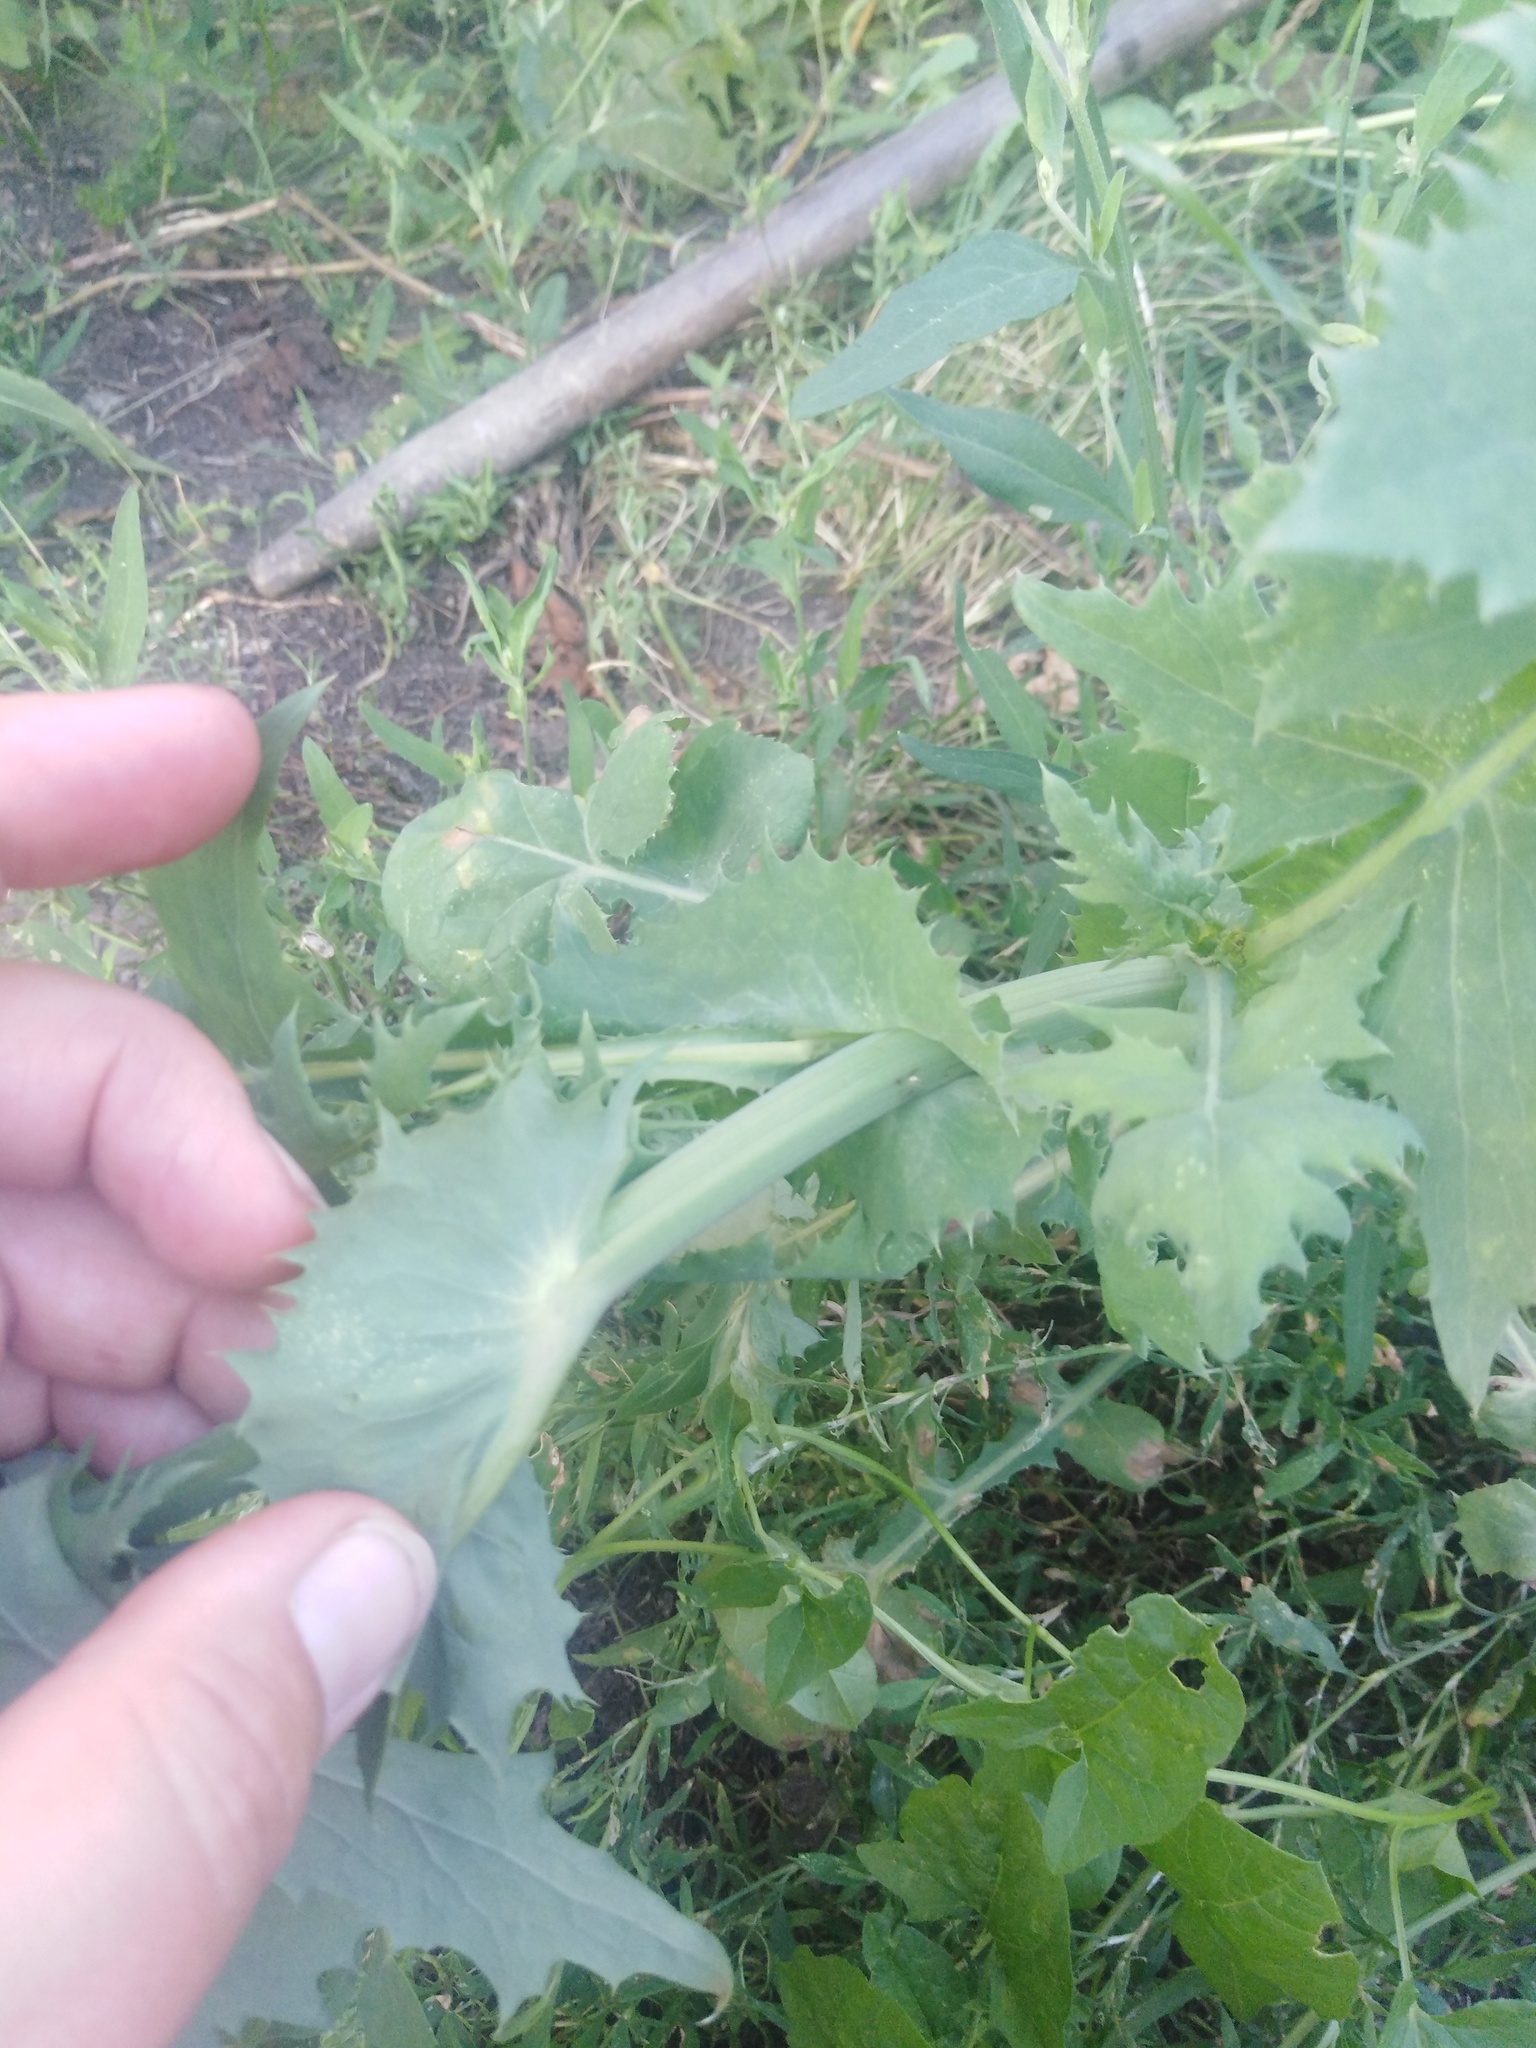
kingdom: Plantae
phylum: Tracheophyta
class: Magnoliopsida
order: Asterales
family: Asteraceae
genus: Sonchus
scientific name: Sonchus oleraceus
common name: Common sowthistle
